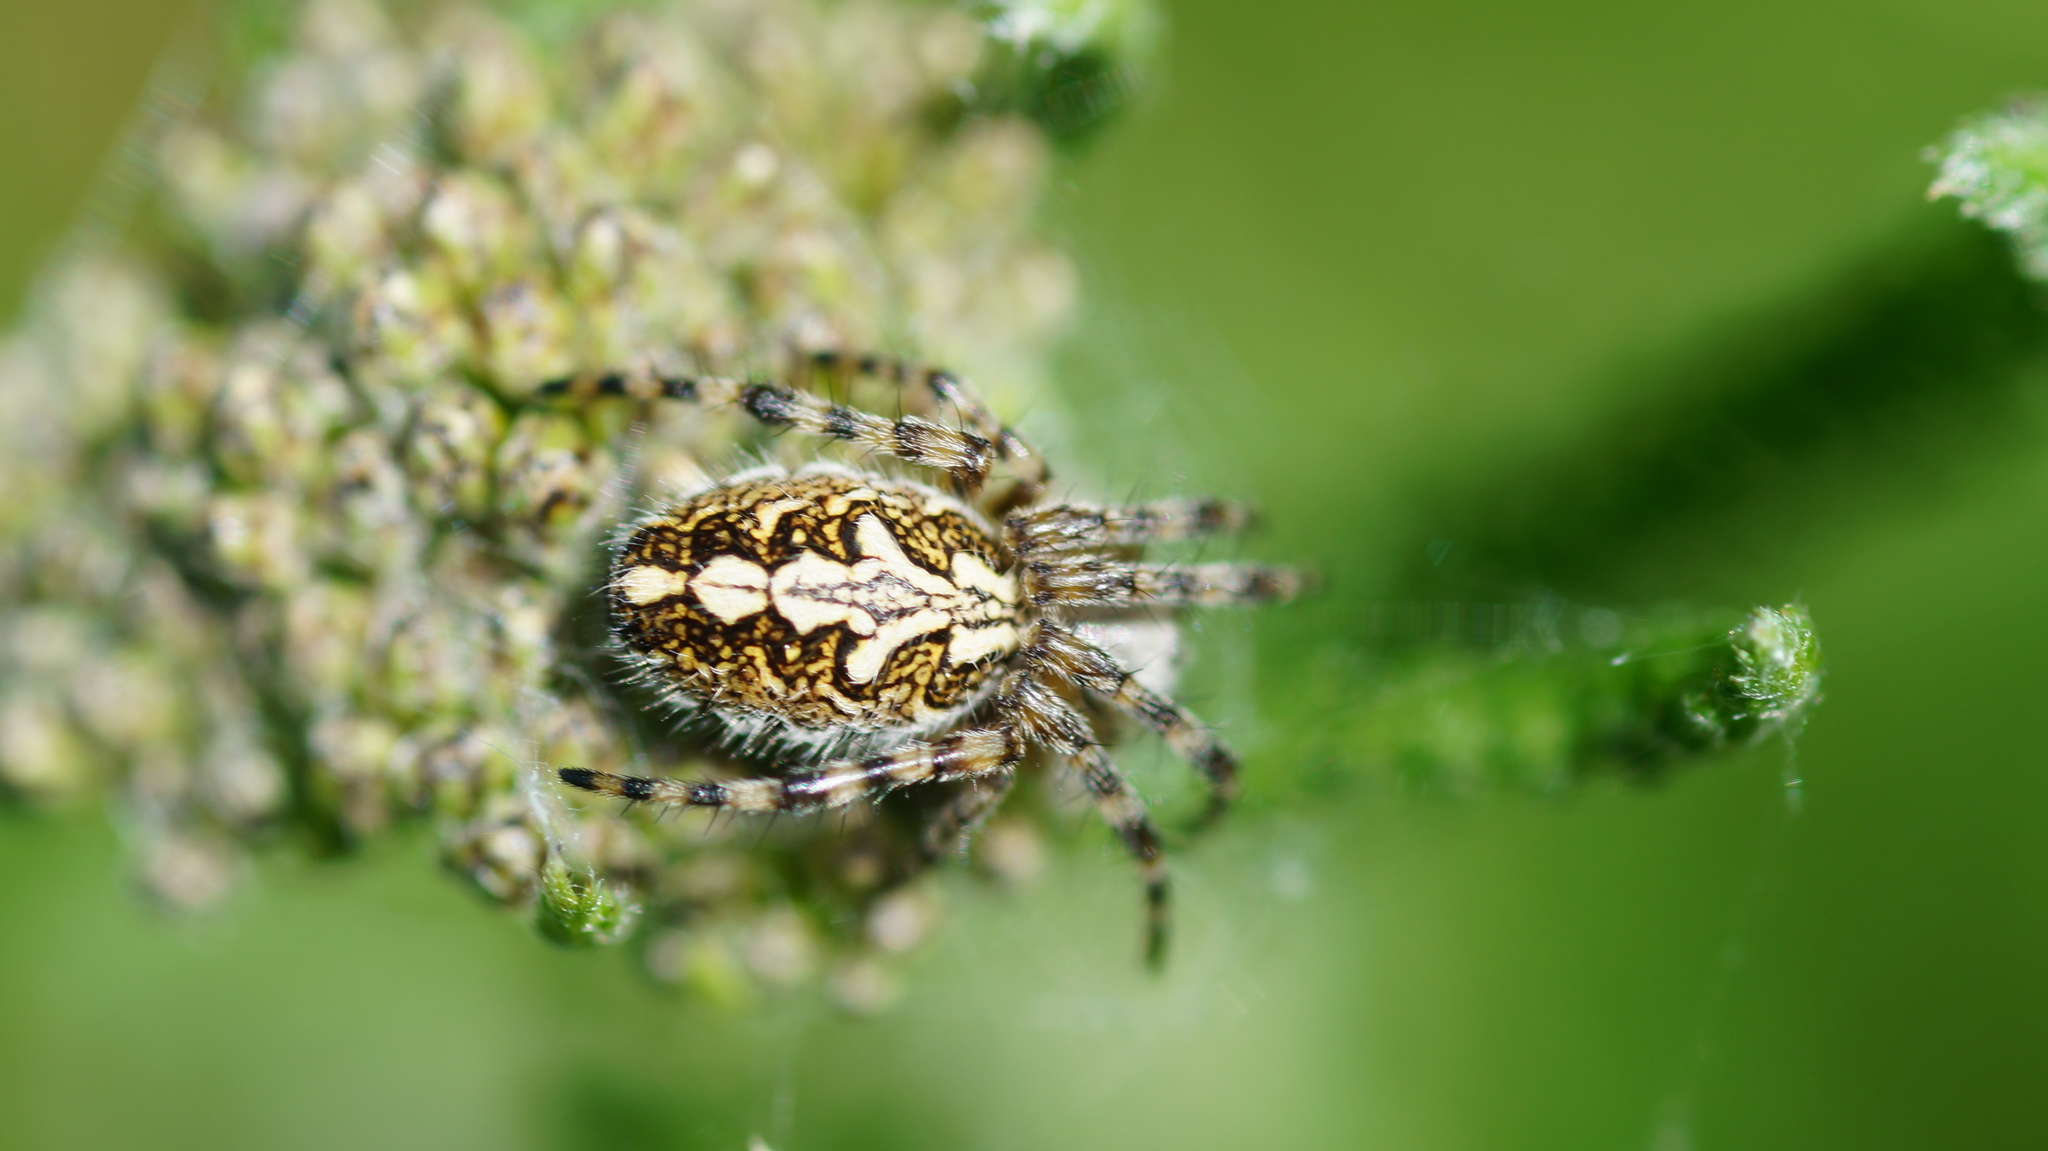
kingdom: Animalia
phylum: Arthropoda
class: Arachnida
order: Araneae
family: Araneidae
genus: Aculepeira
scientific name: Aculepeira ceropegia
